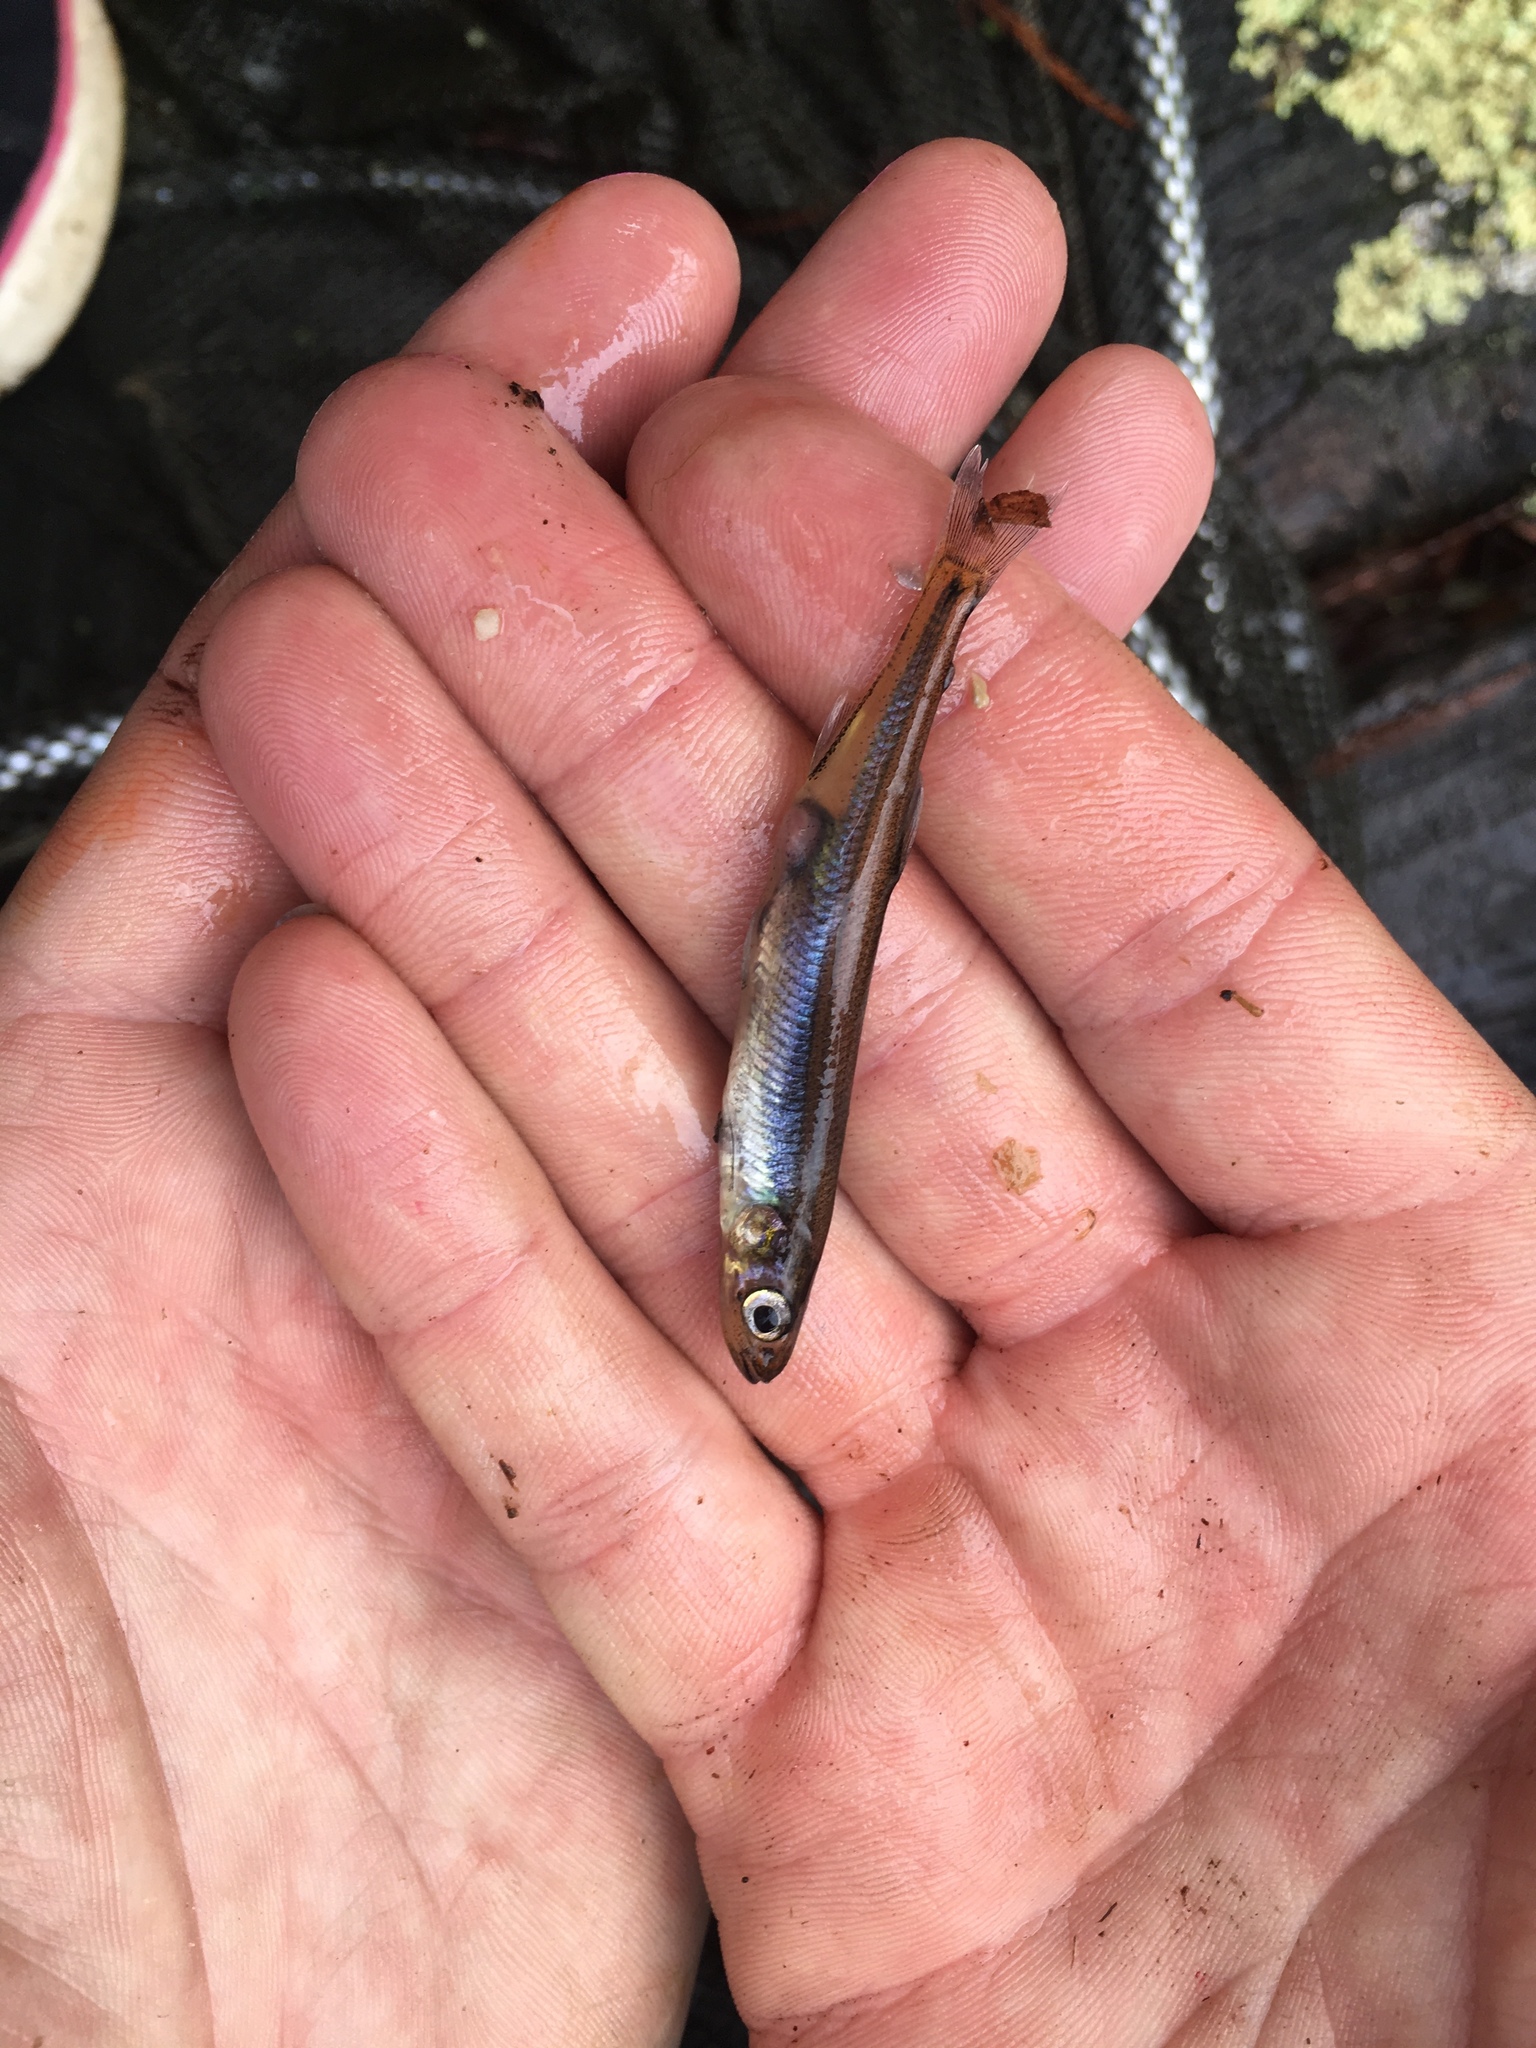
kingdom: Animalia
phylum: Chordata
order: Osmeriformes
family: Retropinnidae
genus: Retropinna
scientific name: Retropinna retropinna
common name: Common smelt
